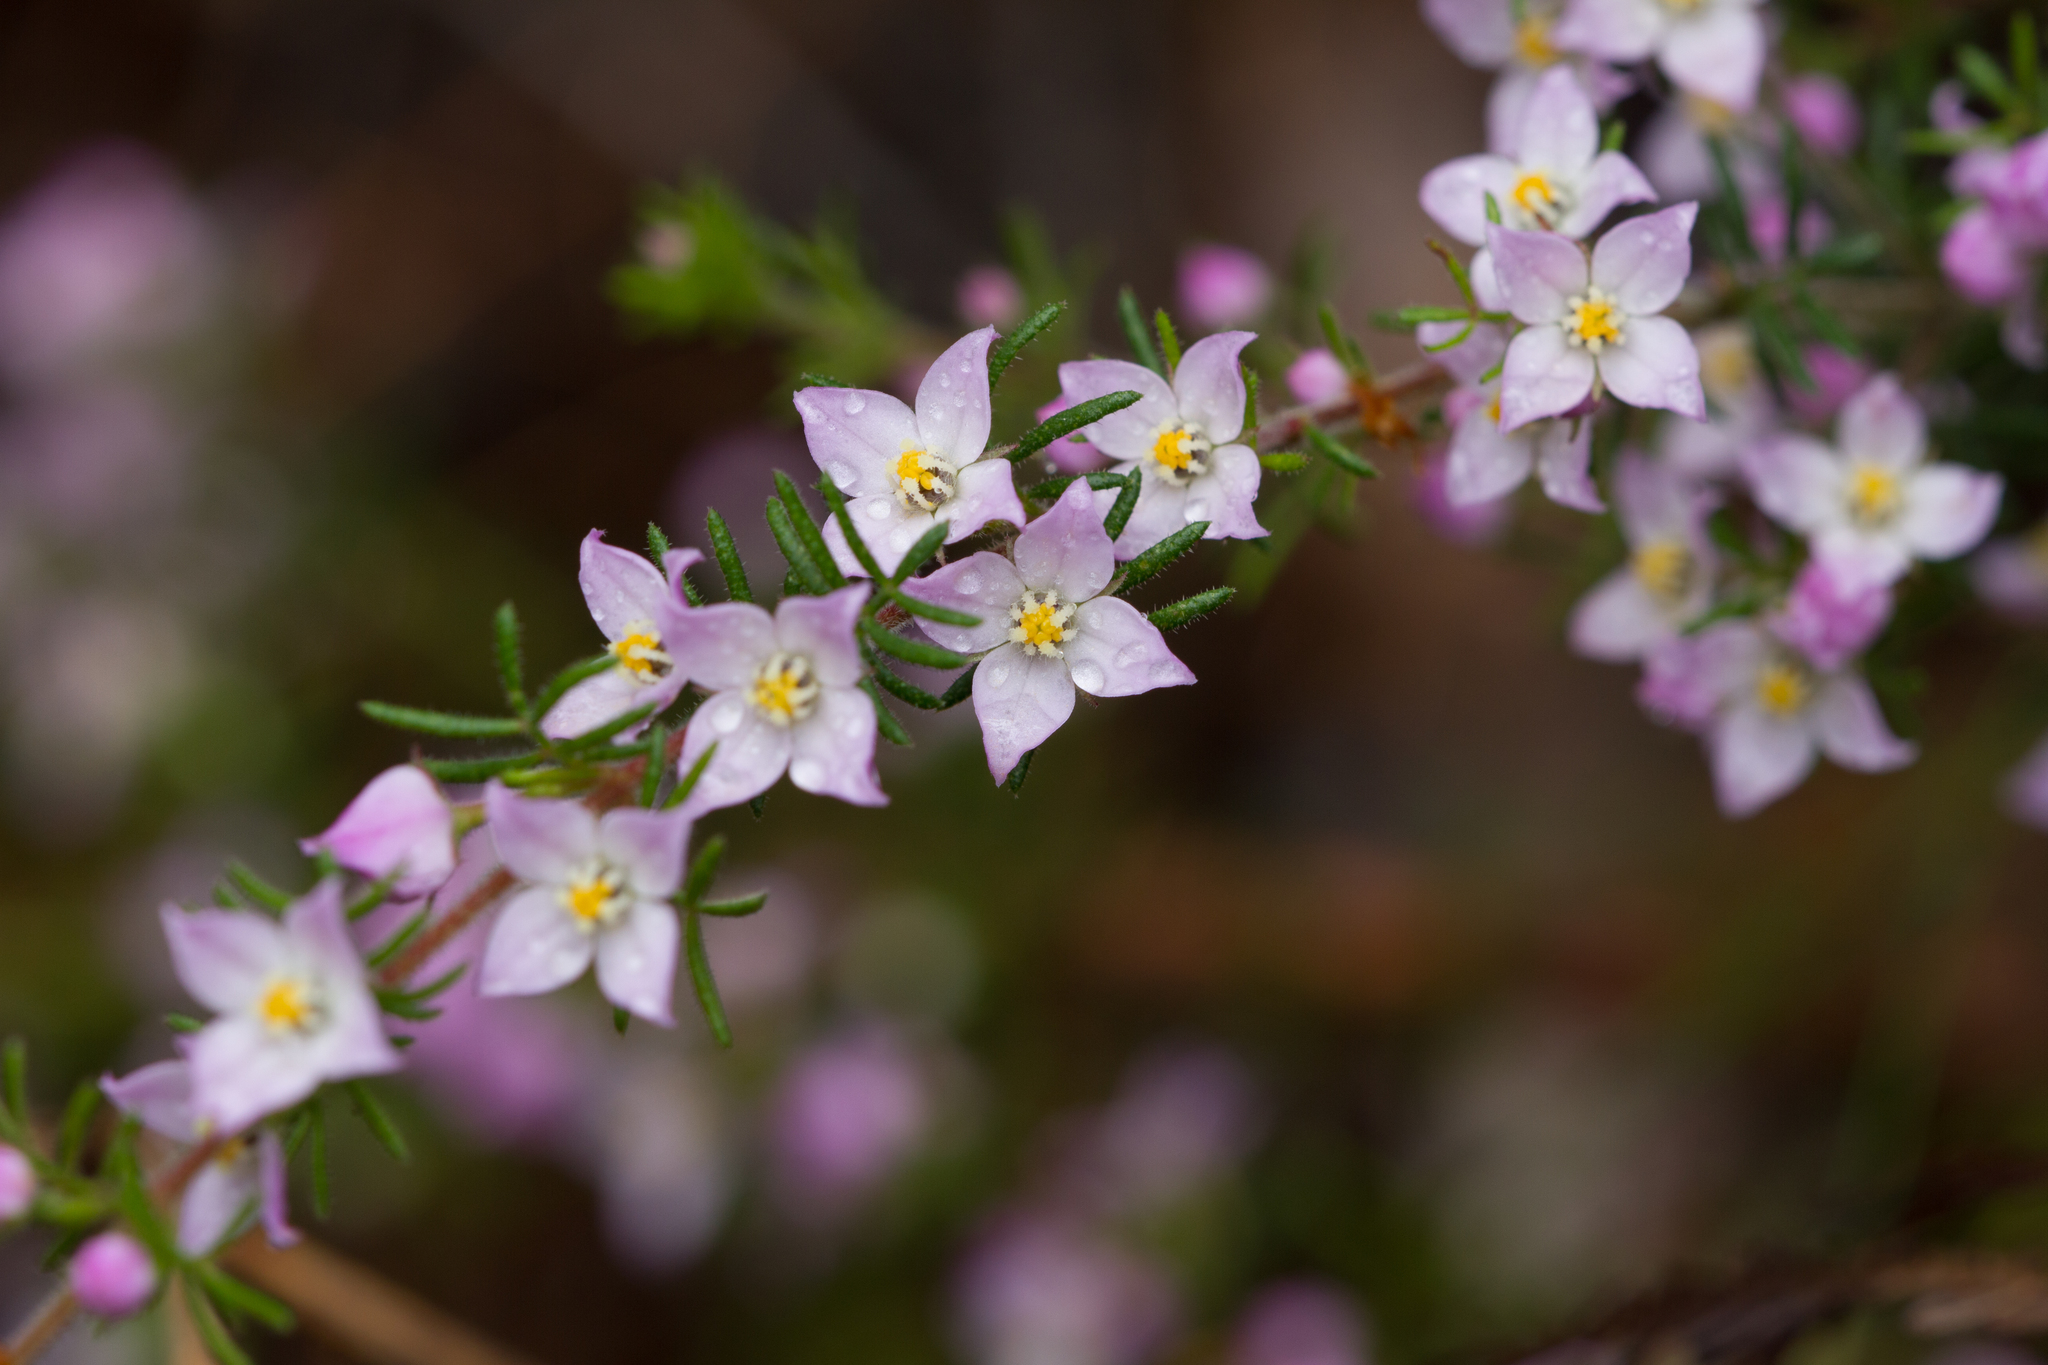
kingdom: Plantae
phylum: Tracheophyta
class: Magnoliopsida
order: Sapindales
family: Rutaceae
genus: Boronia
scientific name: Boronia pilosa
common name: Hairy boronia
